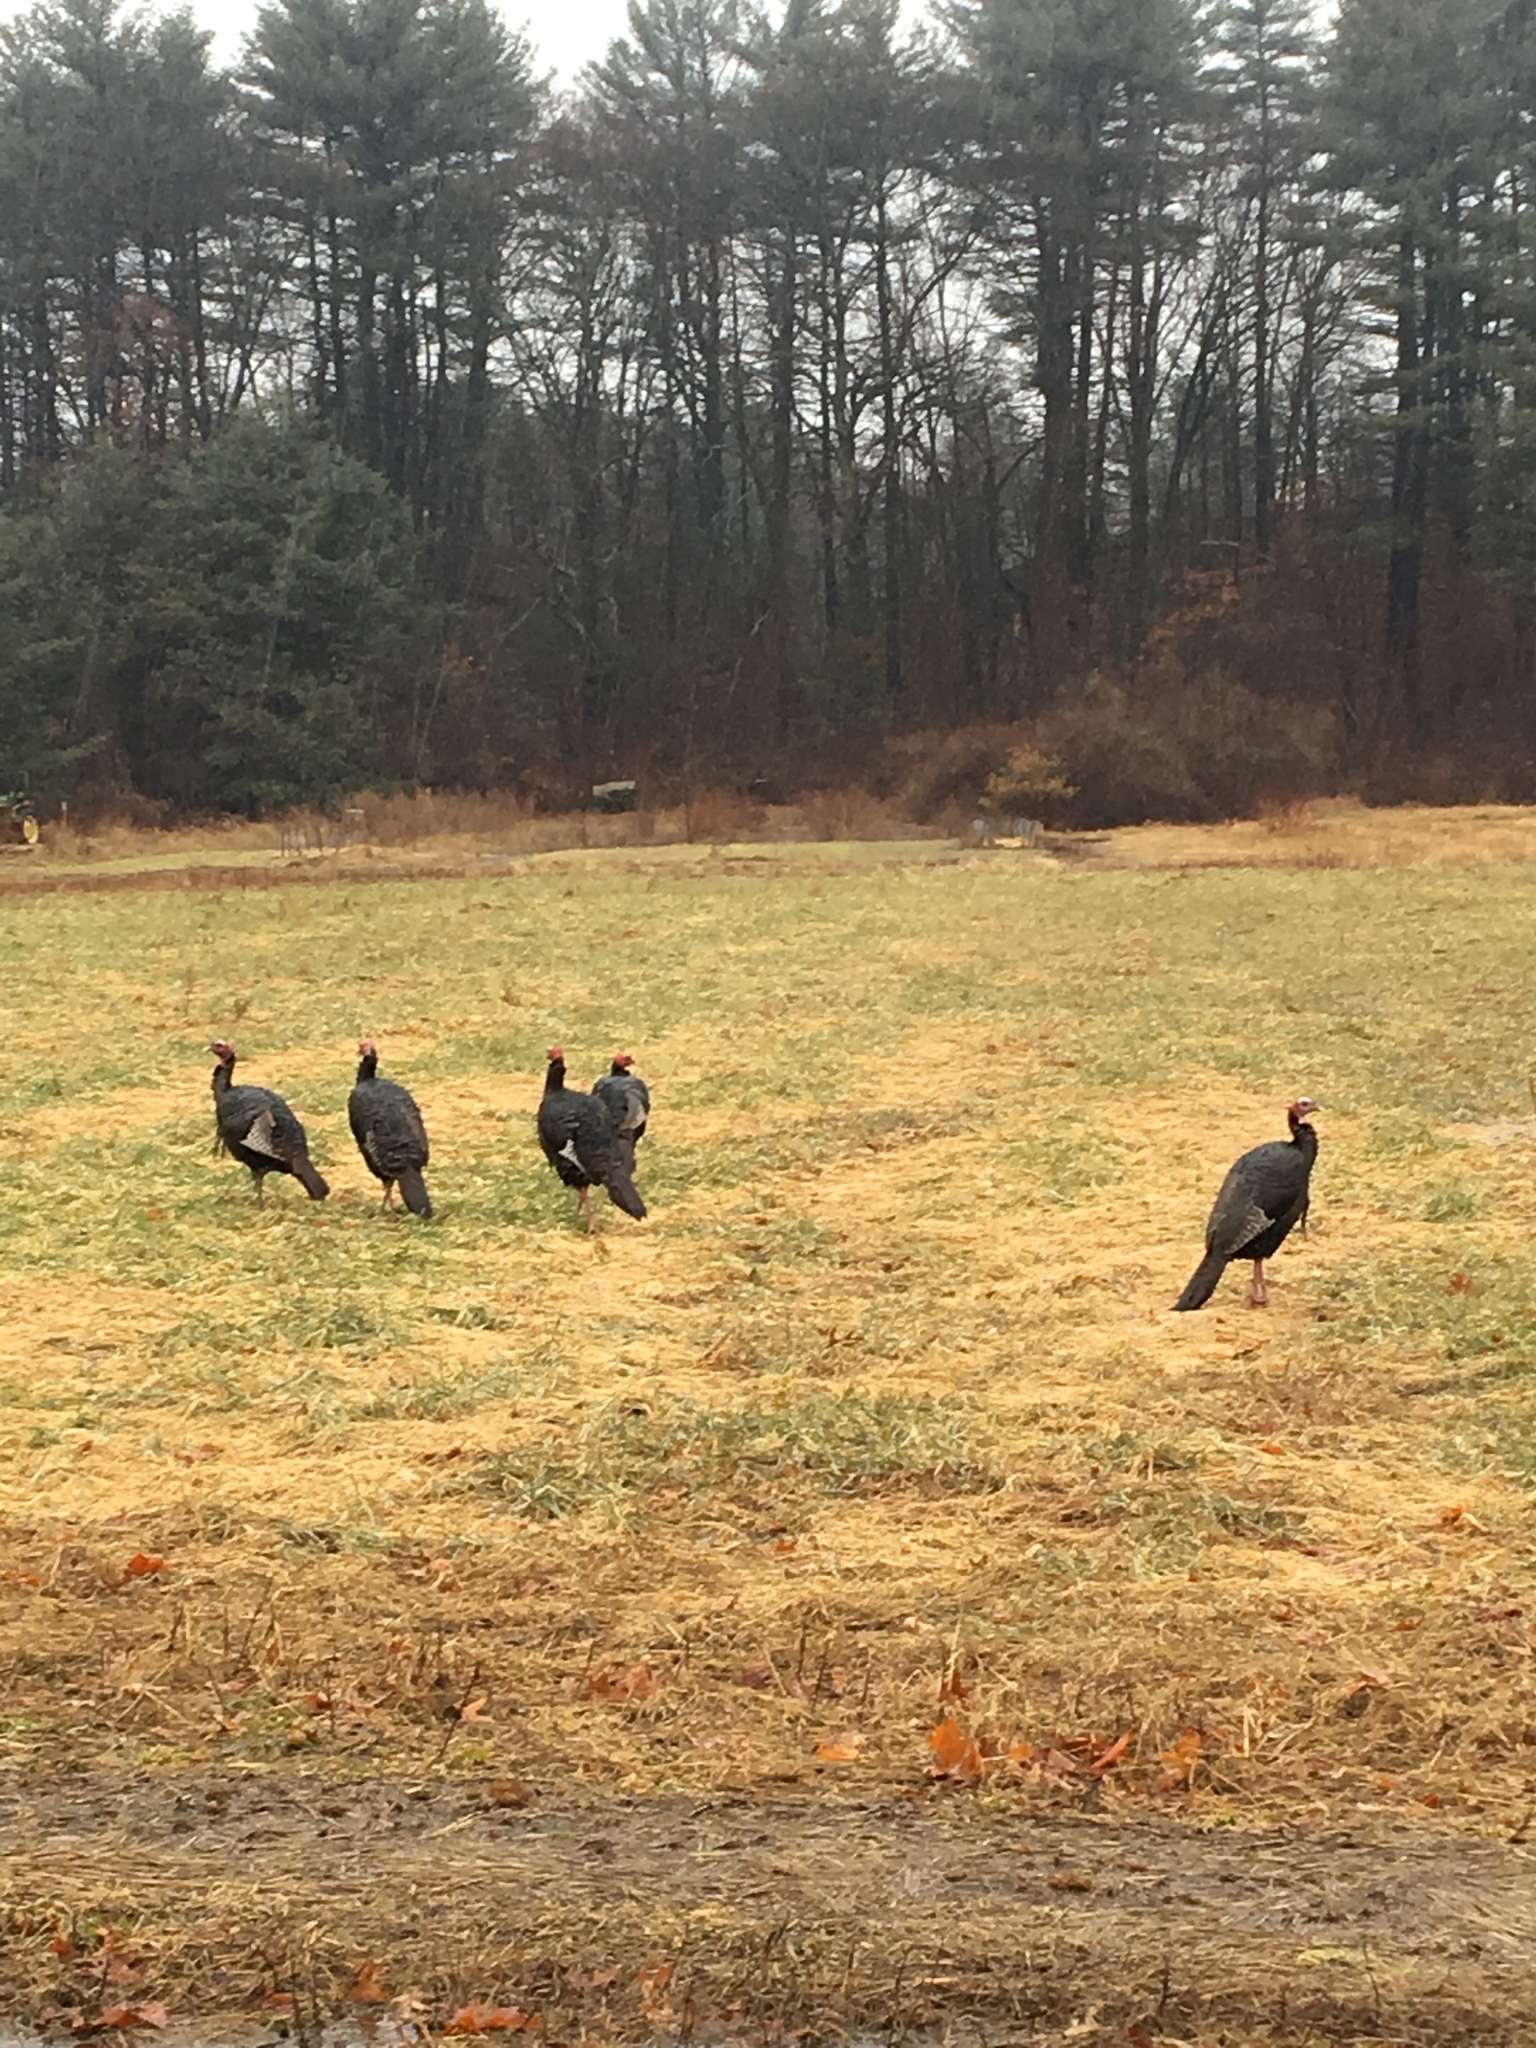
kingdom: Animalia
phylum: Chordata
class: Aves
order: Galliformes
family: Phasianidae
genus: Meleagris
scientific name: Meleagris gallopavo
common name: Wild turkey
